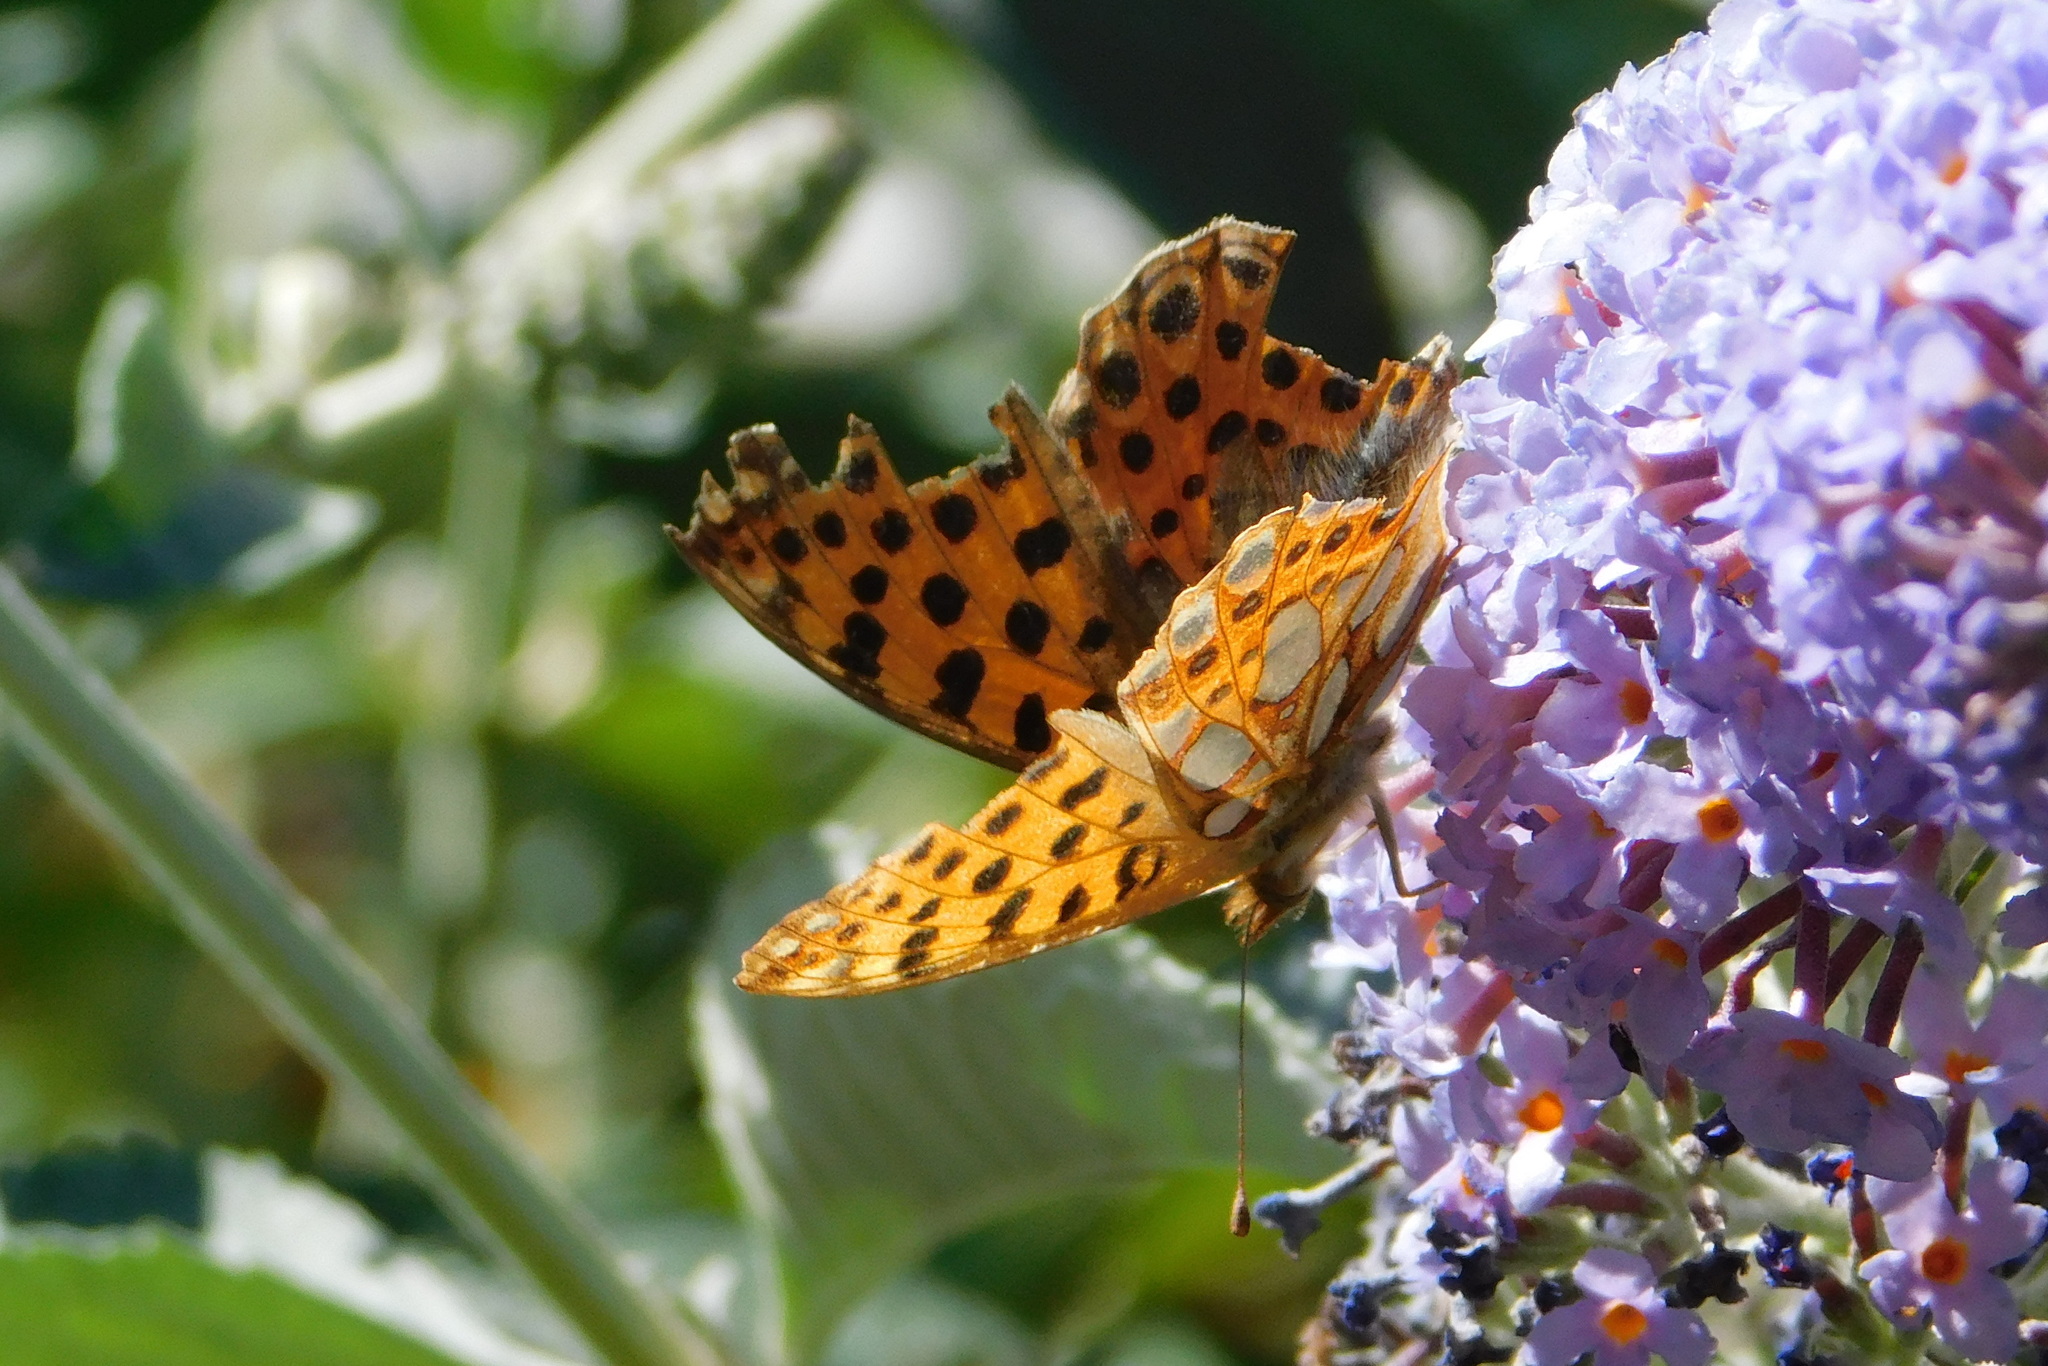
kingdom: Animalia
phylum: Arthropoda
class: Insecta
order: Lepidoptera
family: Nymphalidae
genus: Issoria
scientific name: Issoria lathonia
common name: Queen of spain fritillary
